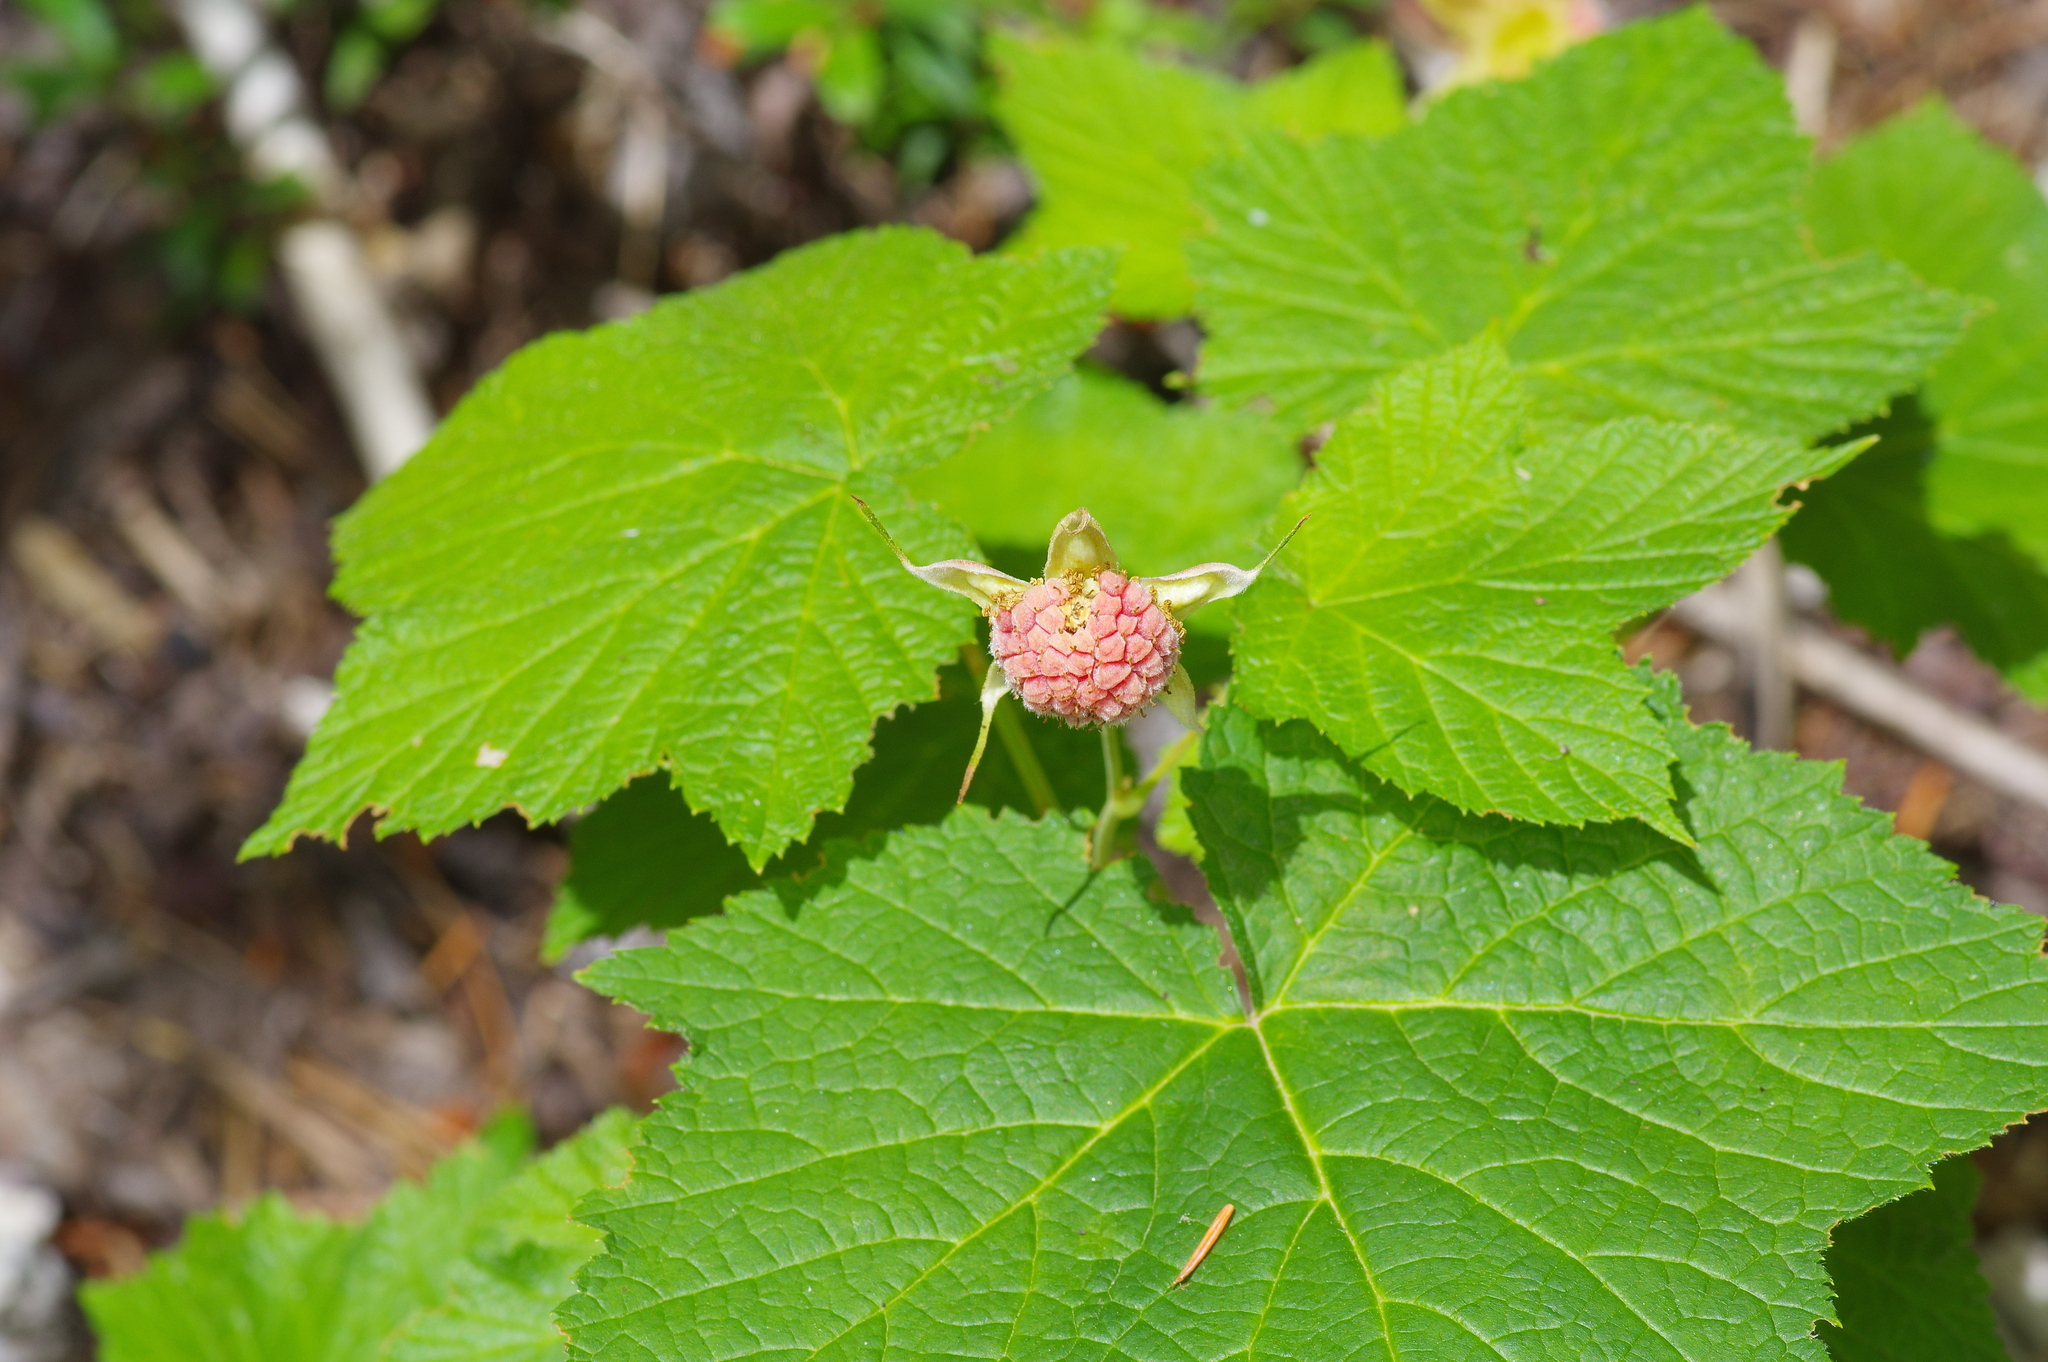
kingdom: Plantae
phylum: Tracheophyta
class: Magnoliopsida
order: Rosales
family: Rosaceae
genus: Rubus
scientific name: Rubus parviflorus
